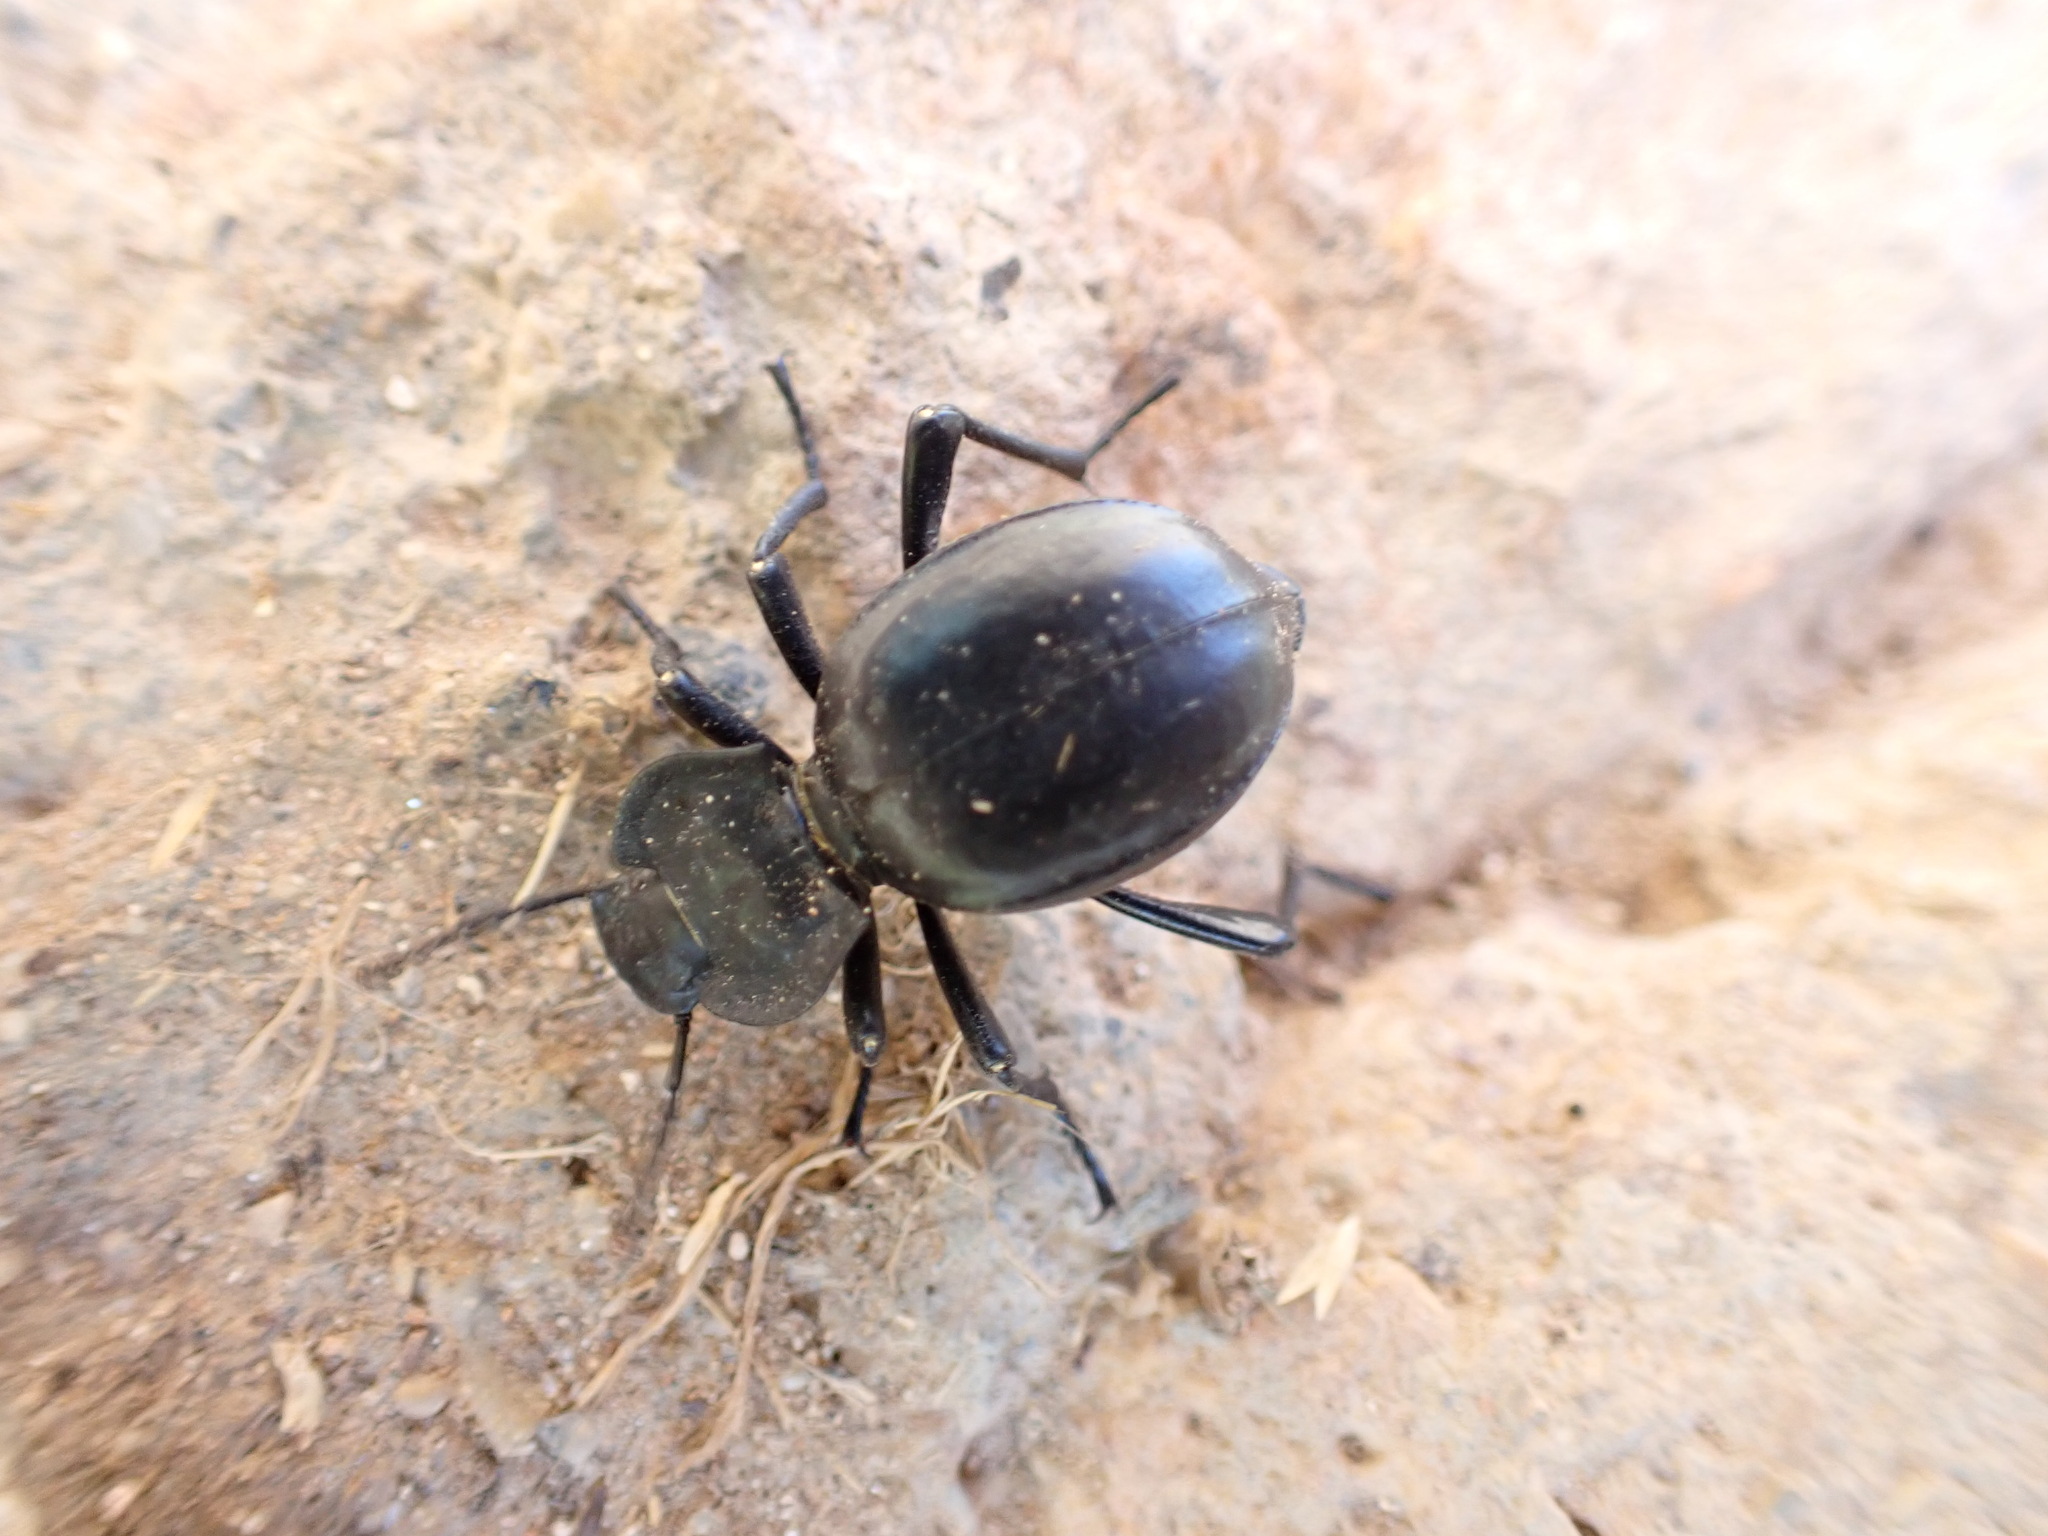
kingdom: Animalia
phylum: Arthropoda
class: Insecta
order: Coleoptera
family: Tenebrionidae
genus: Morica
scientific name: Morica planata
